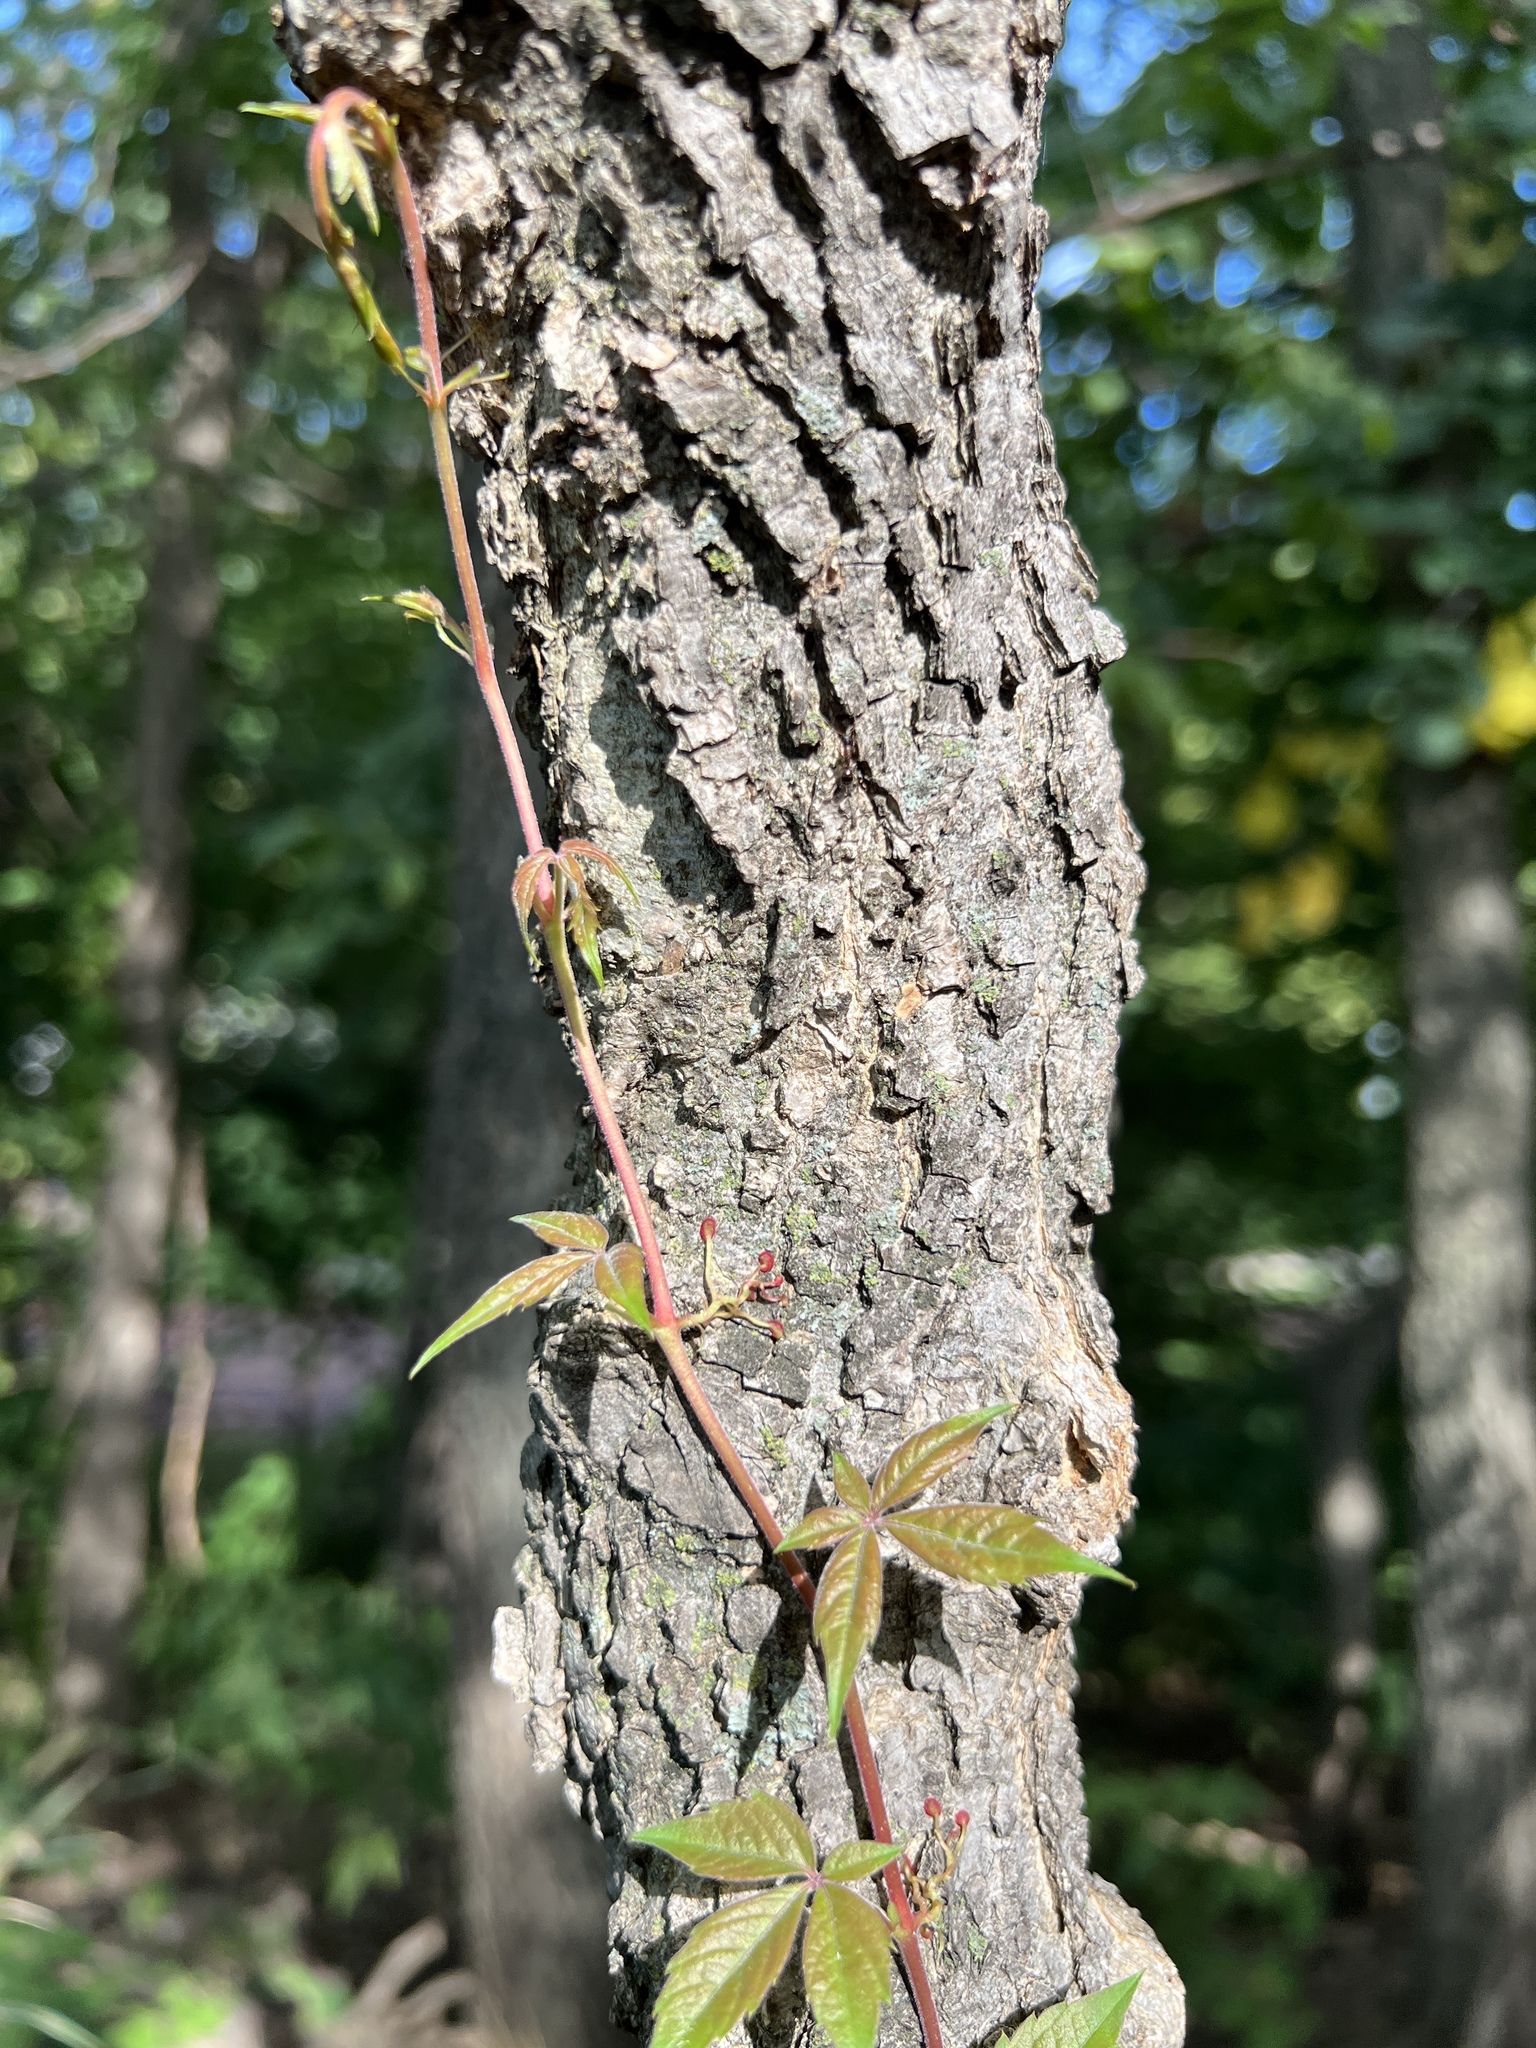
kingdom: Plantae
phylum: Tracheophyta
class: Magnoliopsida
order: Vitales
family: Vitaceae
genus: Parthenocissus
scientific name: Parthenocissus quinquefolia
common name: Virginia-creeper
